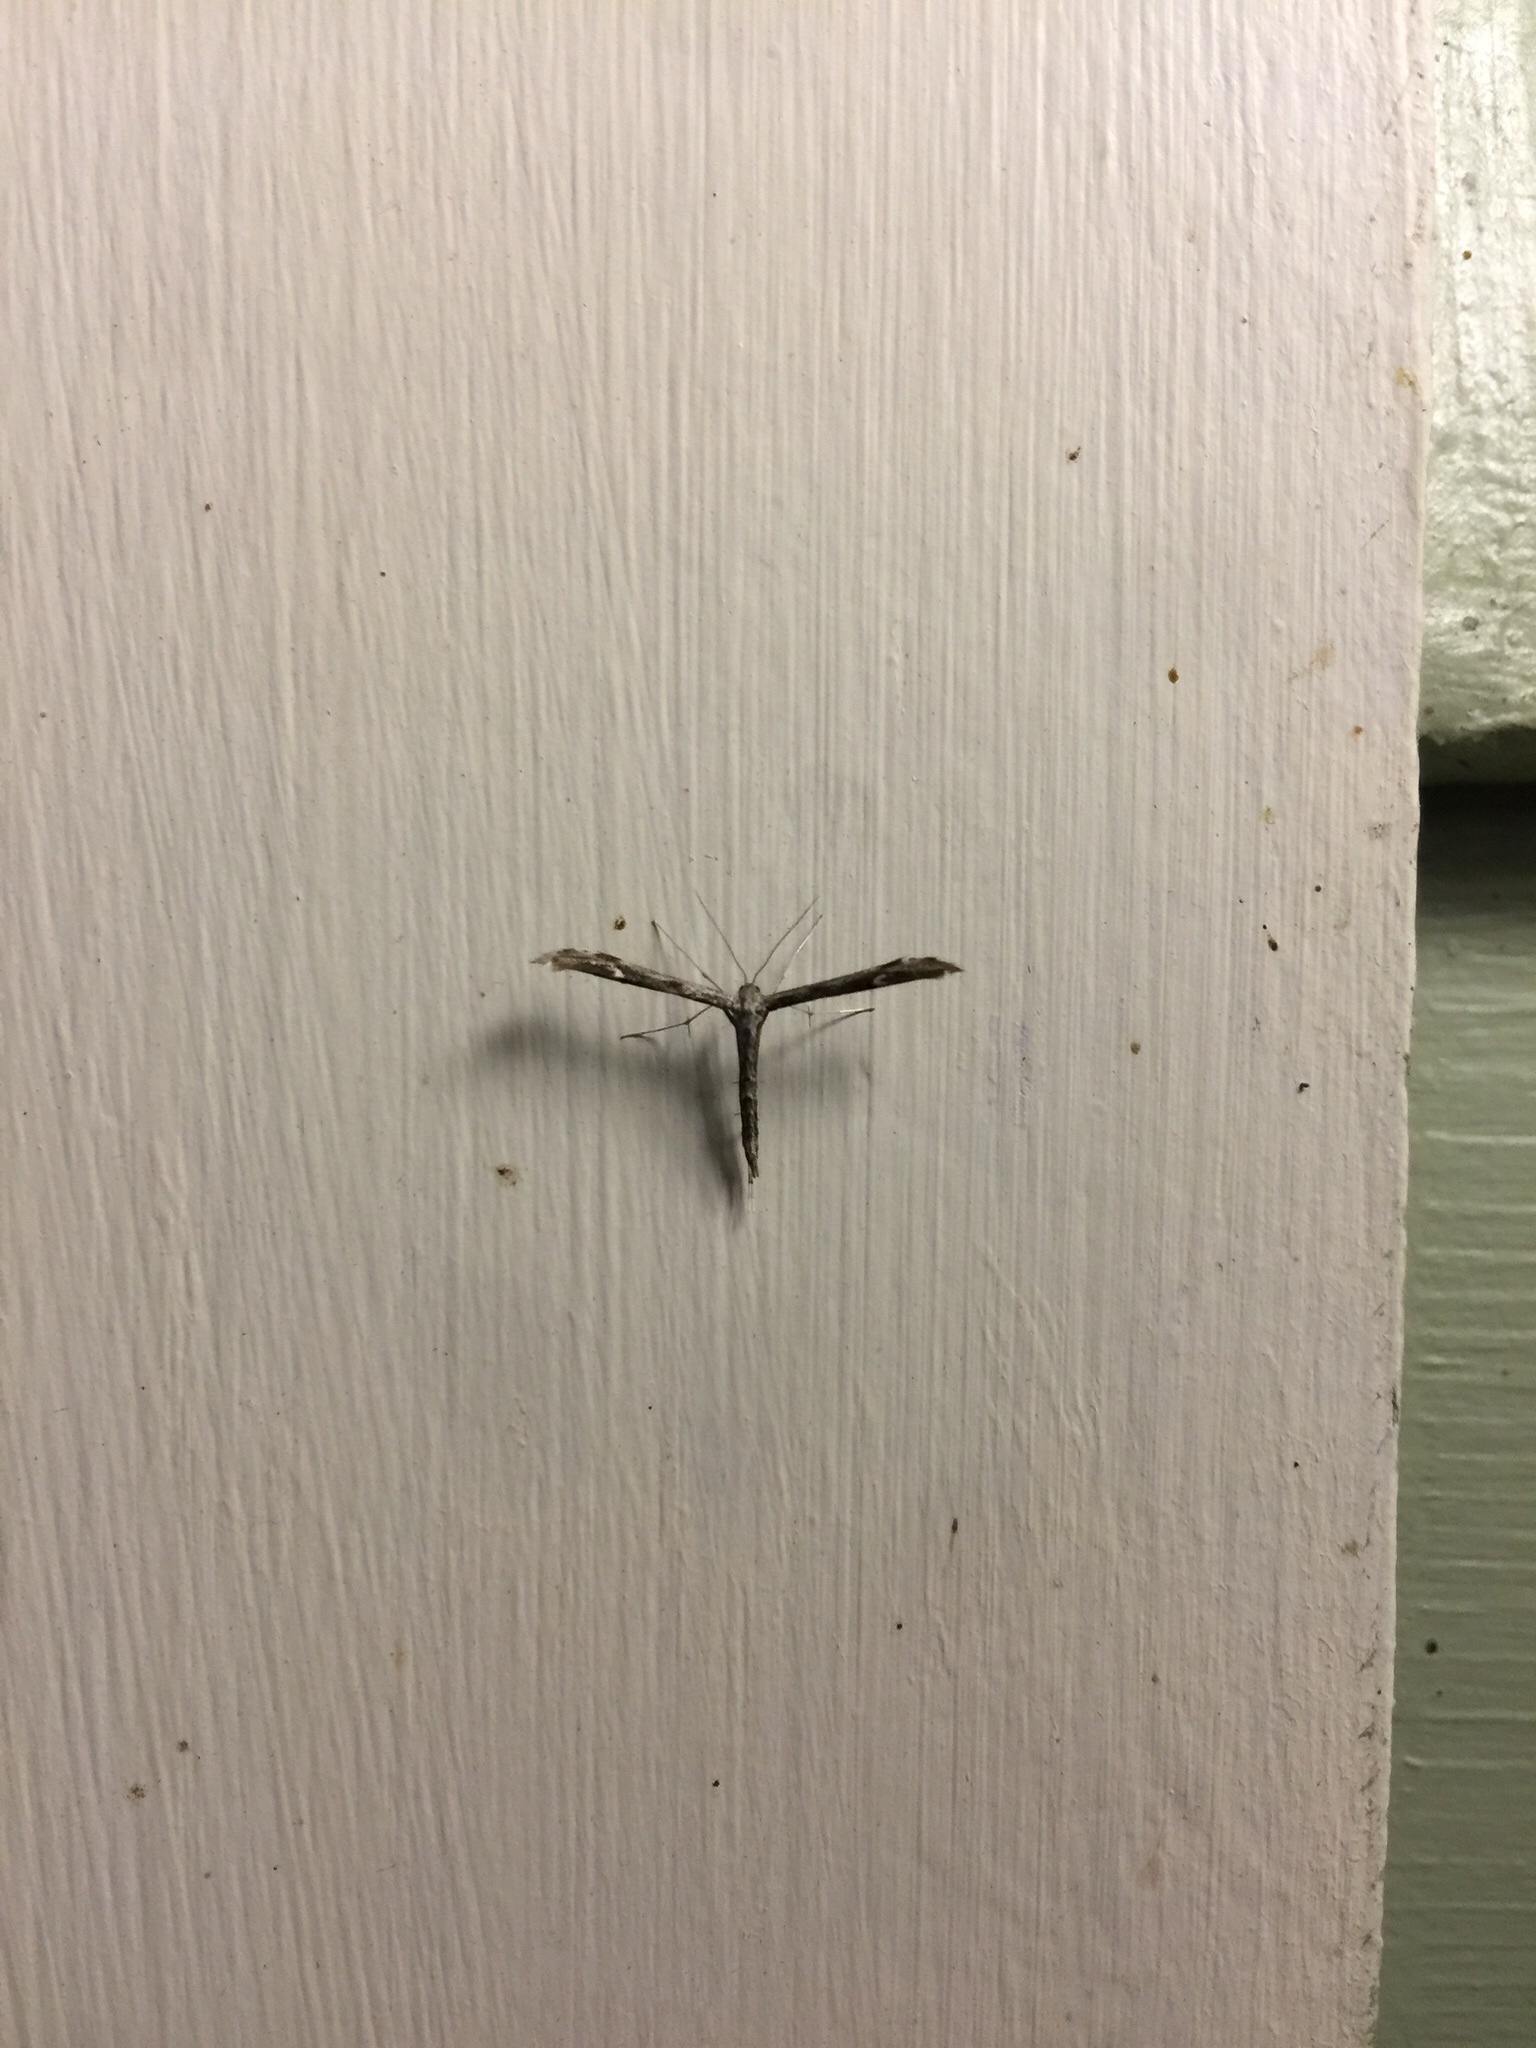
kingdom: Animalia
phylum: Arthropoda
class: Insecta
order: Lepidoptera
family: Pterophoridae
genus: Hellinsia
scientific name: Hellinsia inquinatus
